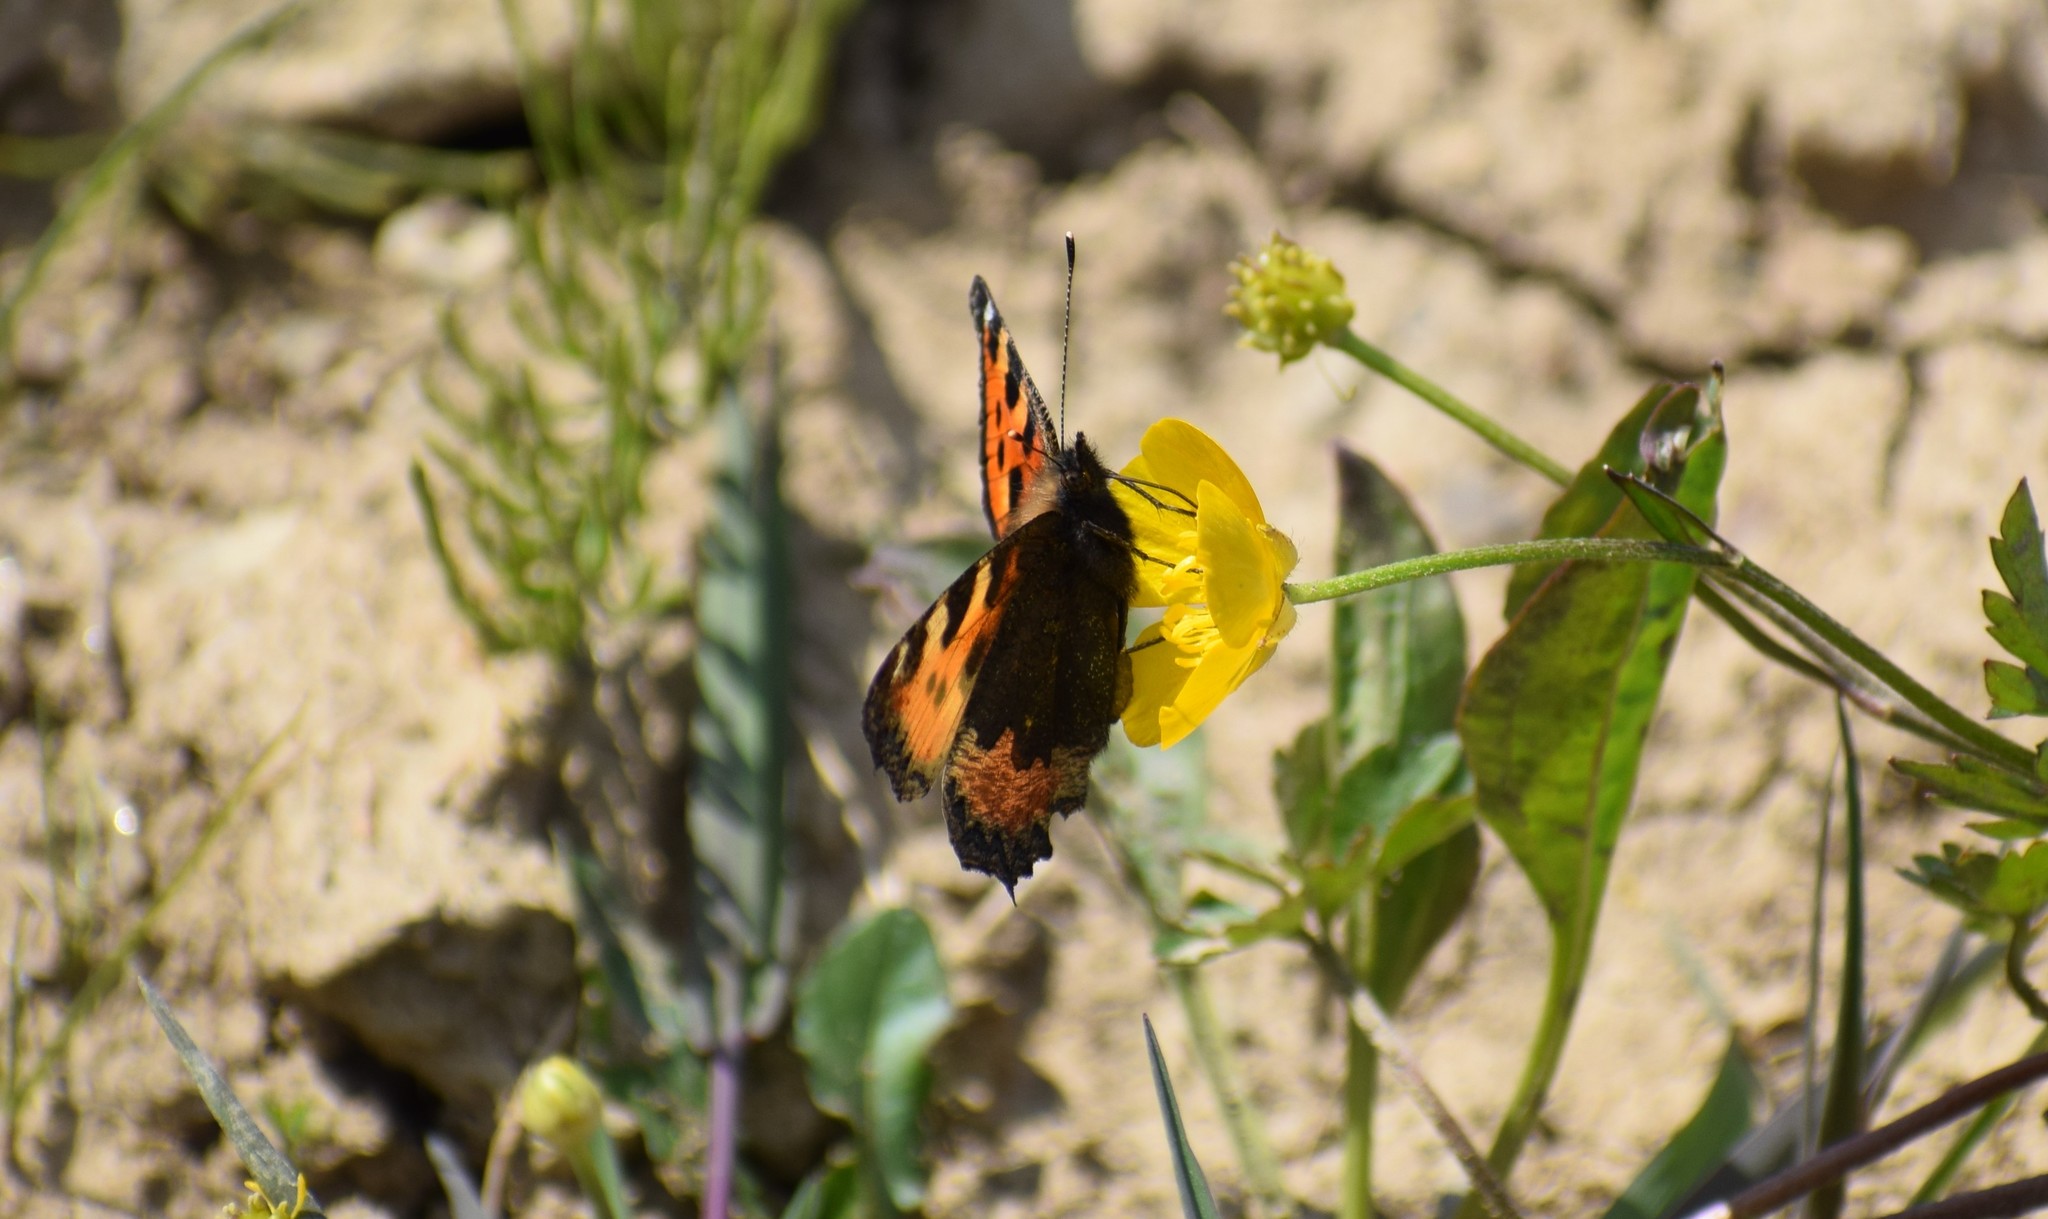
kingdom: Animalia
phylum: Arthropoda
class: Insecta
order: Lepidoptera
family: Nymphalidae
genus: Aglais
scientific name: Aglais urticae
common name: Small tortoiseshell
